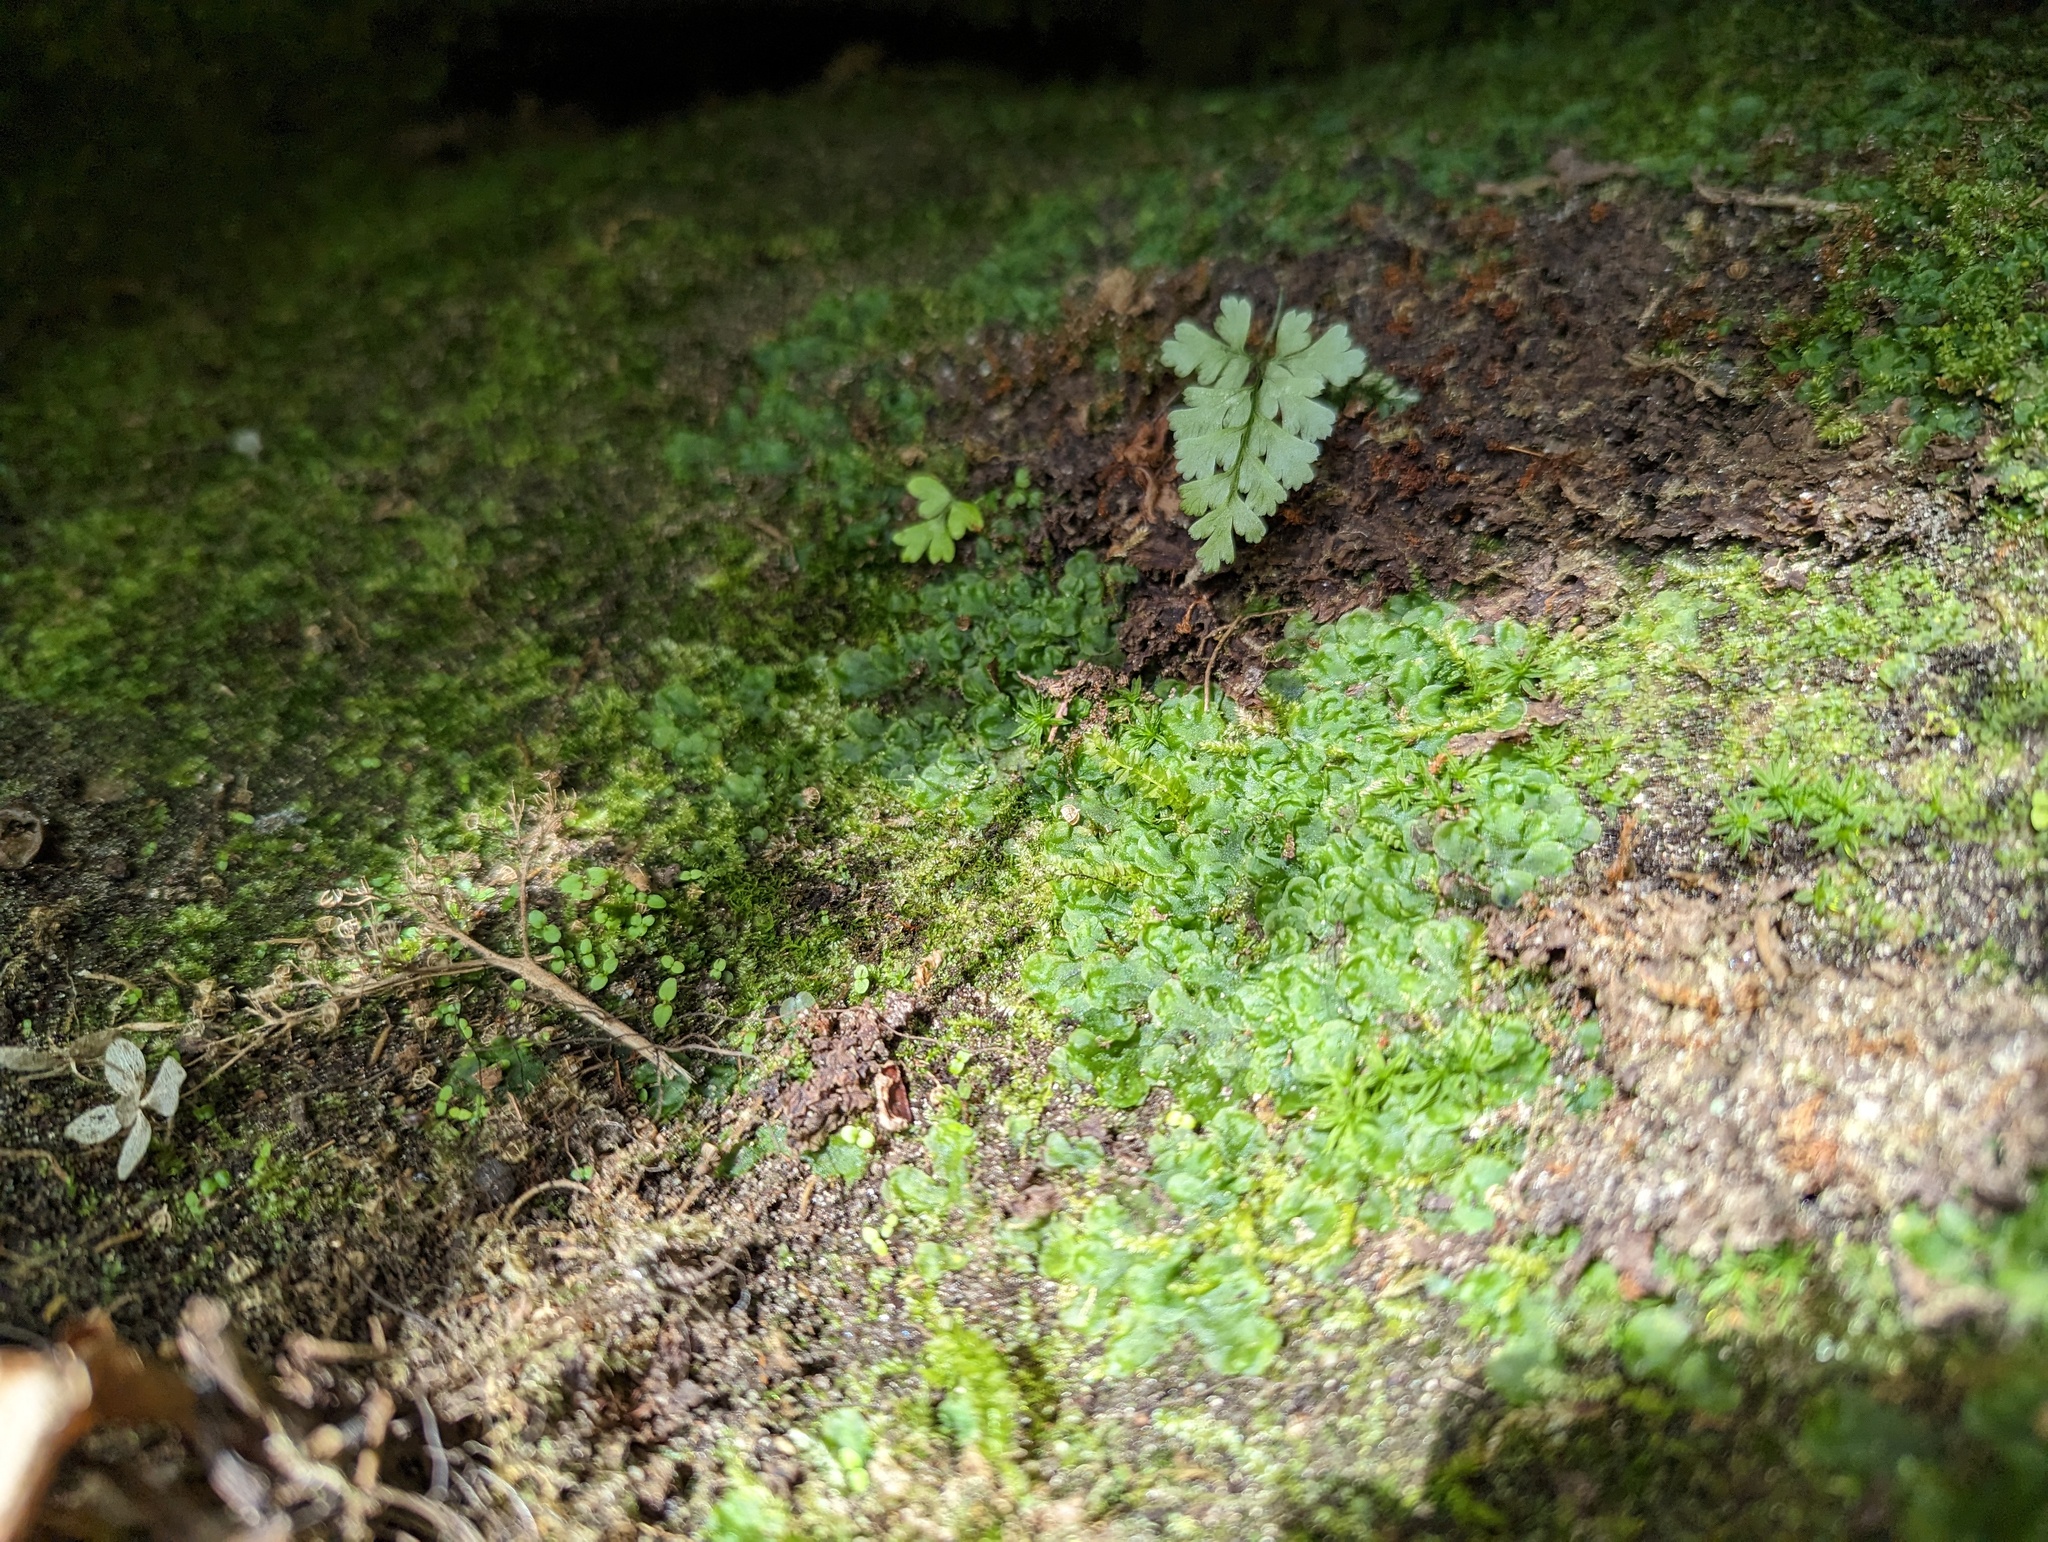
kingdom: Plantae
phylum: Marchantiophyta
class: Jungermanniopsida
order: Pelliales
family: Pelliaceae
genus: Pellia
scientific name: Pellia epiphylla
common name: Common pellia
